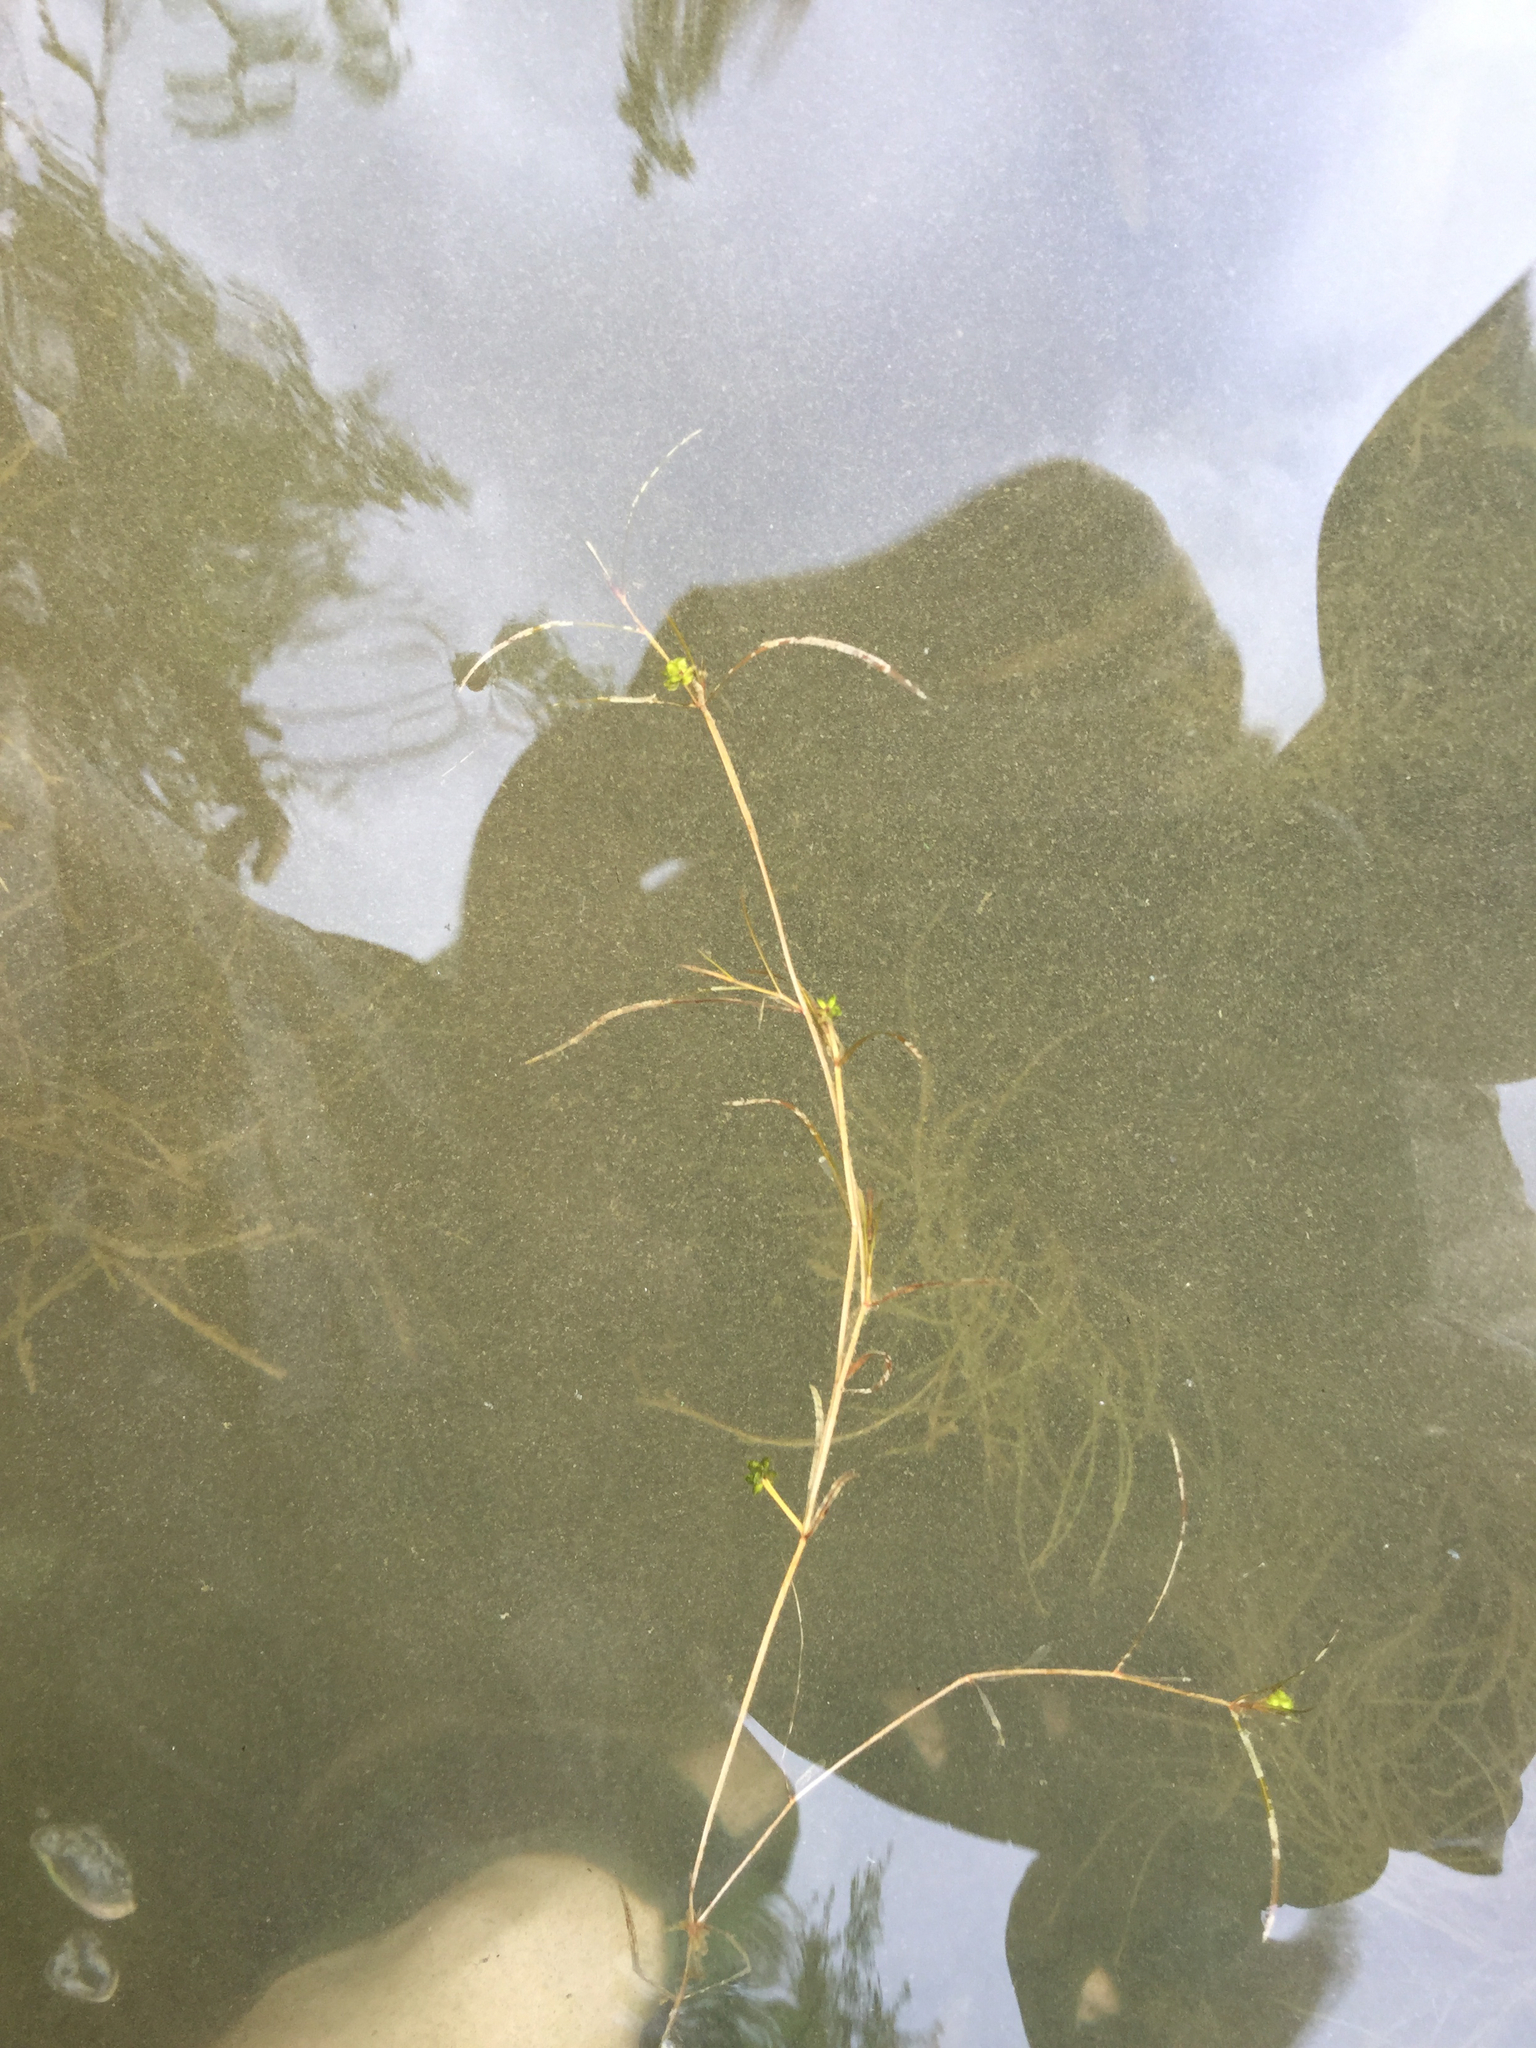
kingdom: Plantae
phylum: Tracheophyta
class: Liliopsida
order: Alismatales
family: Potamogetonaceae
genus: Potamogeton
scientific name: Potamogeton foliosus
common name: Leafy pondweed
